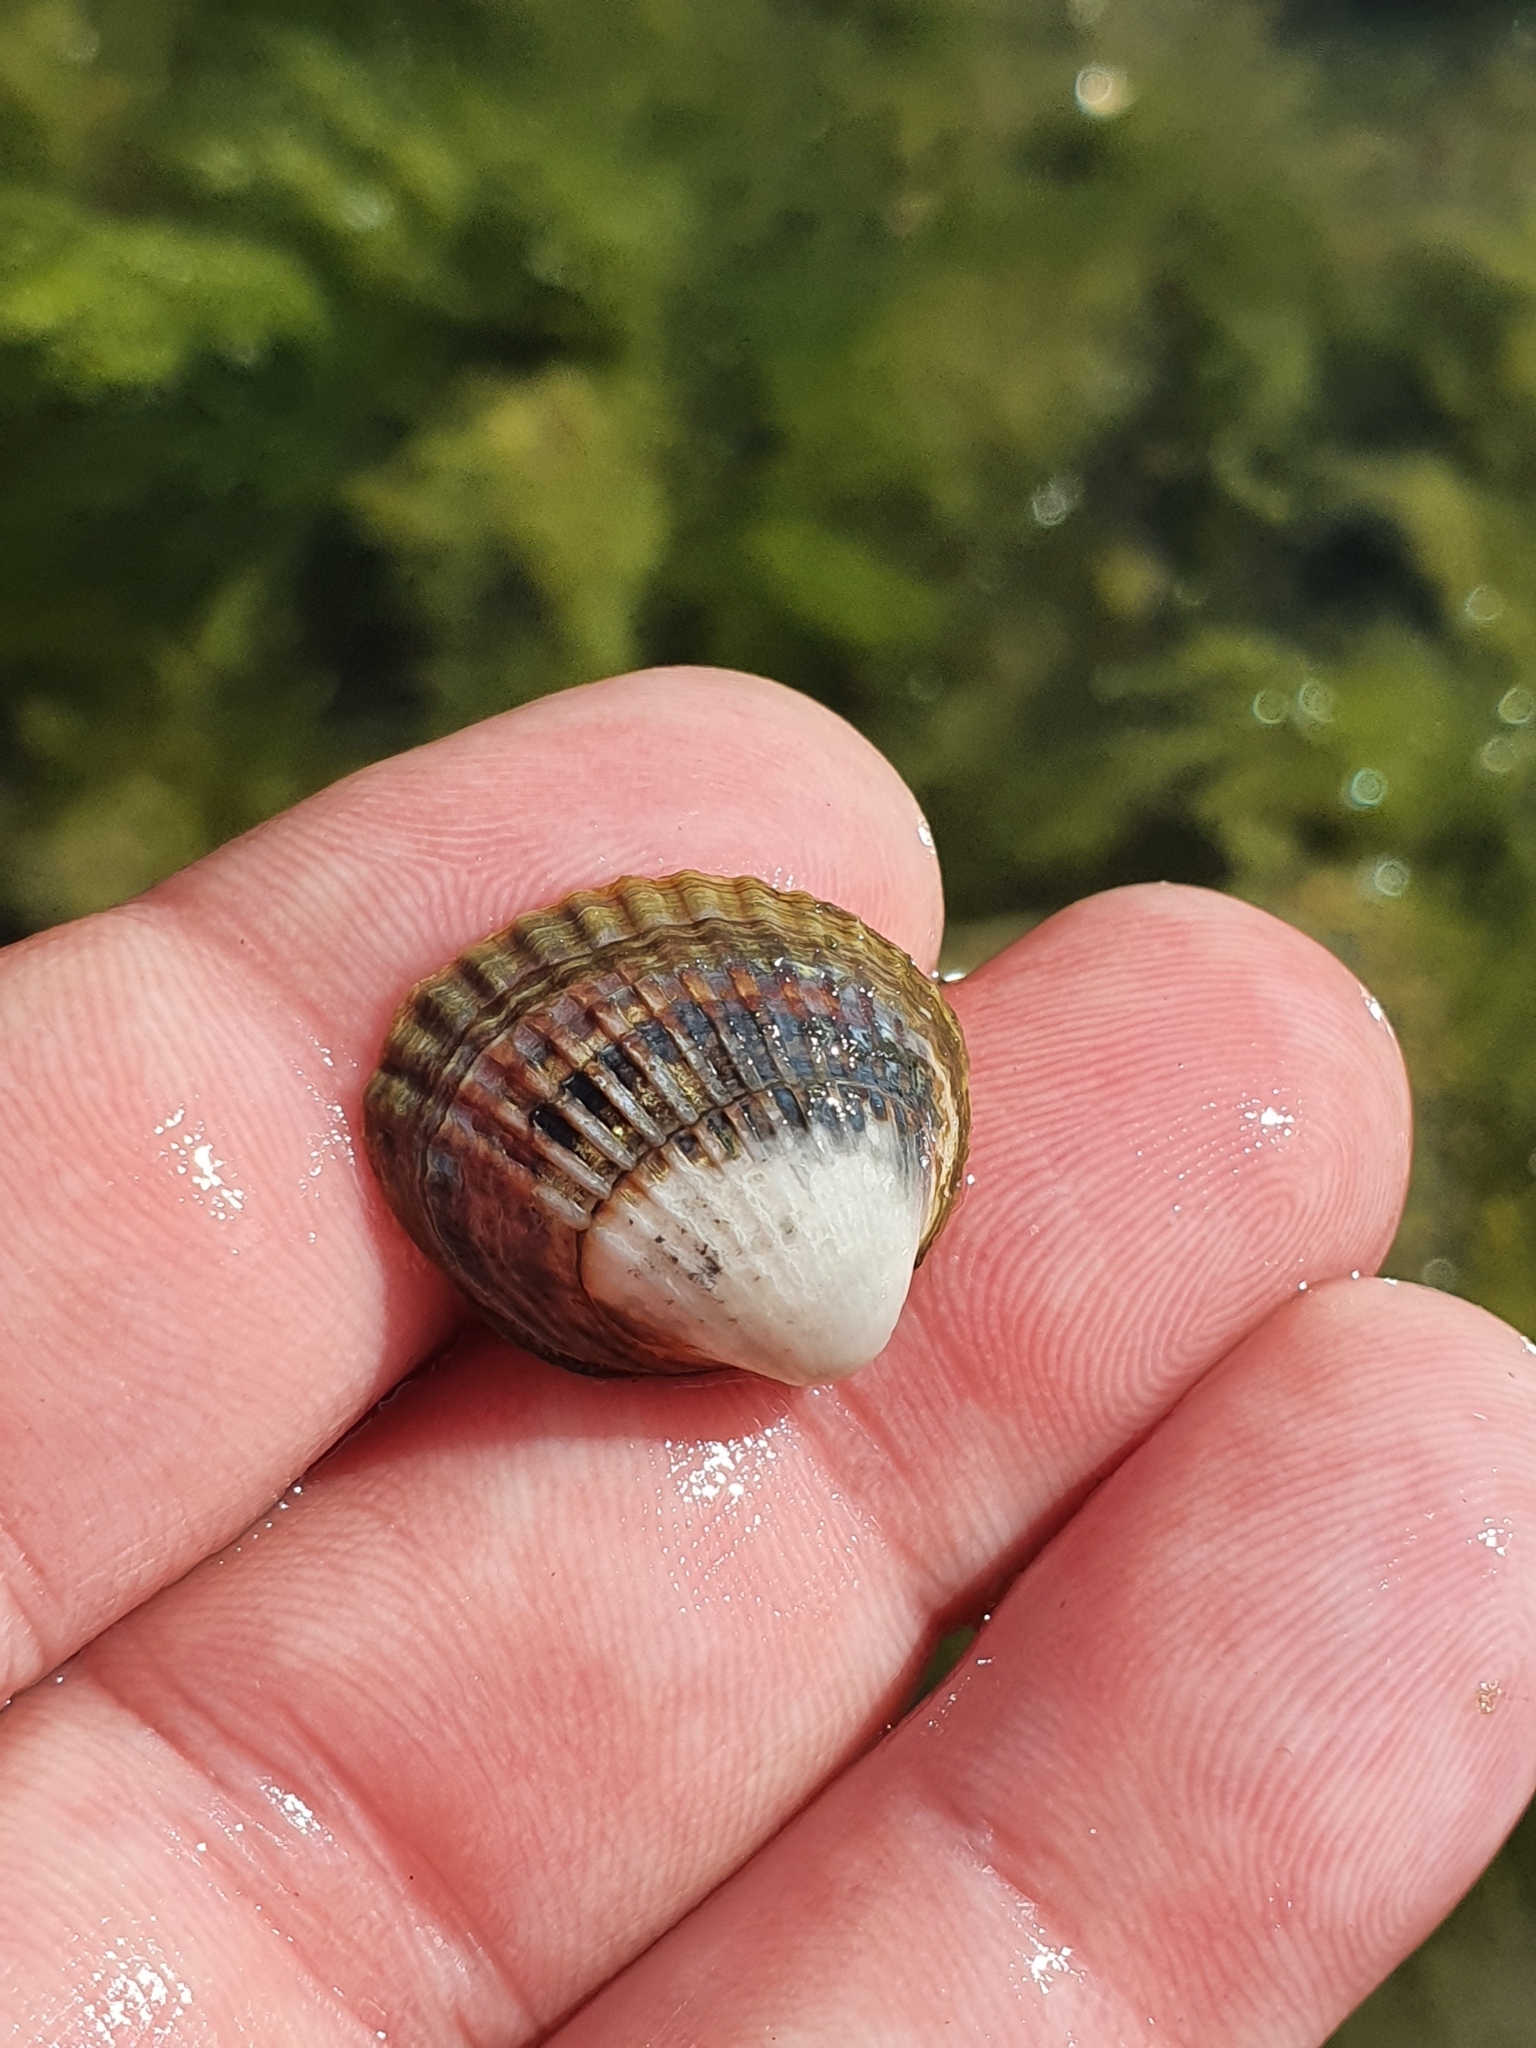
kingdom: Animalia
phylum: Mollusca
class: Bivalvia
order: Cardiida
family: Cardiidae
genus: Cerastoderma
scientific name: Cerastoderma glaucum
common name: Lagoon cockle
